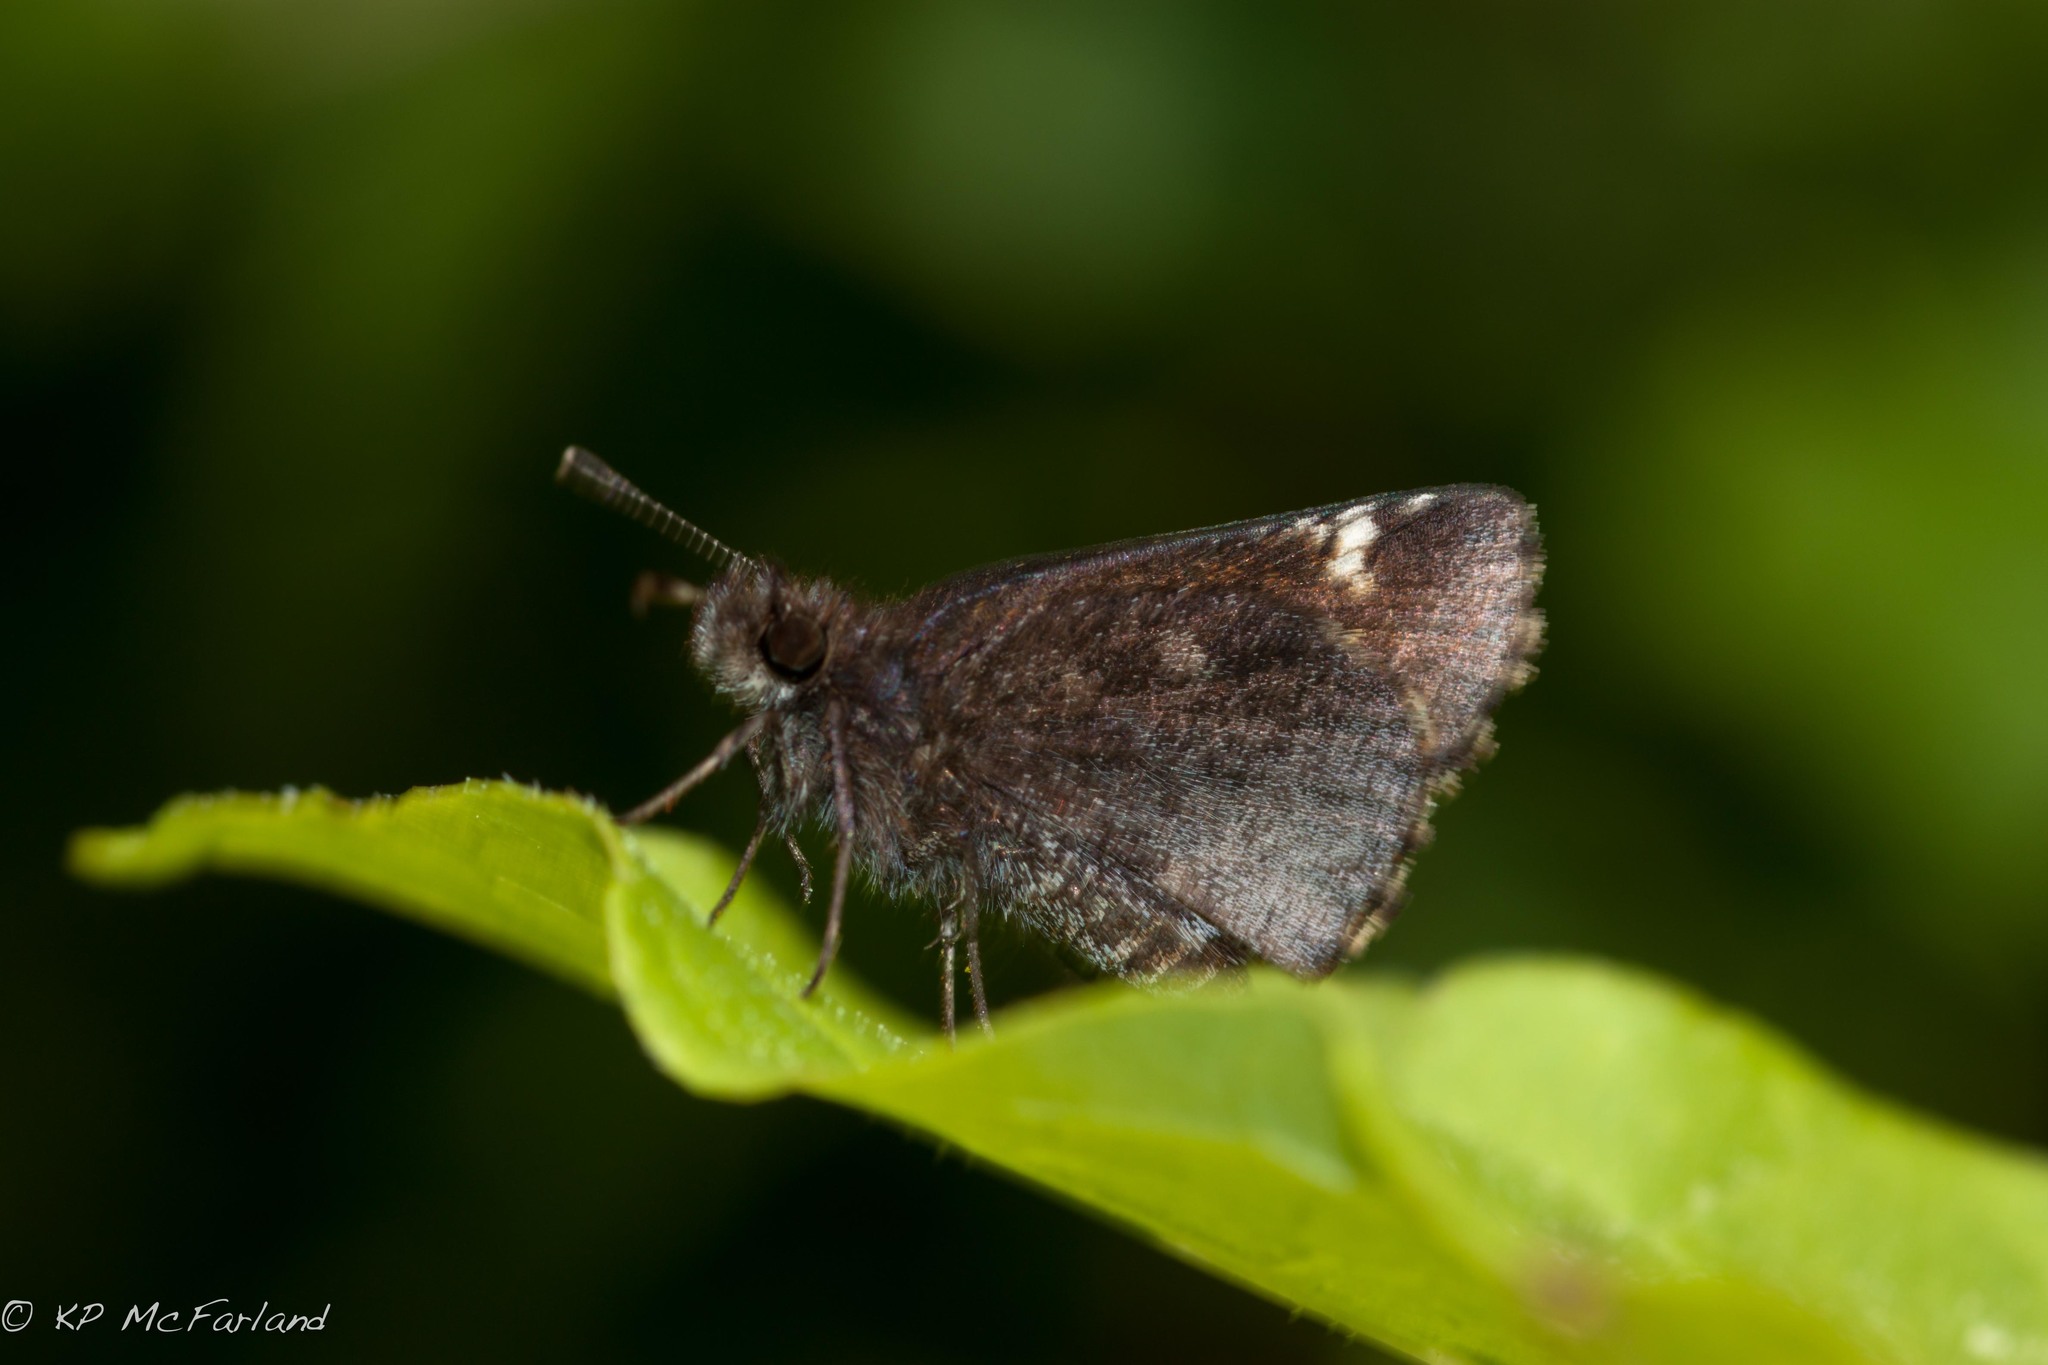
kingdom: Animalia
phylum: Arthropoda
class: Insecta
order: Lepidoptera
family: Hesperiidae
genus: Mastor
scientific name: Mastor vialis
